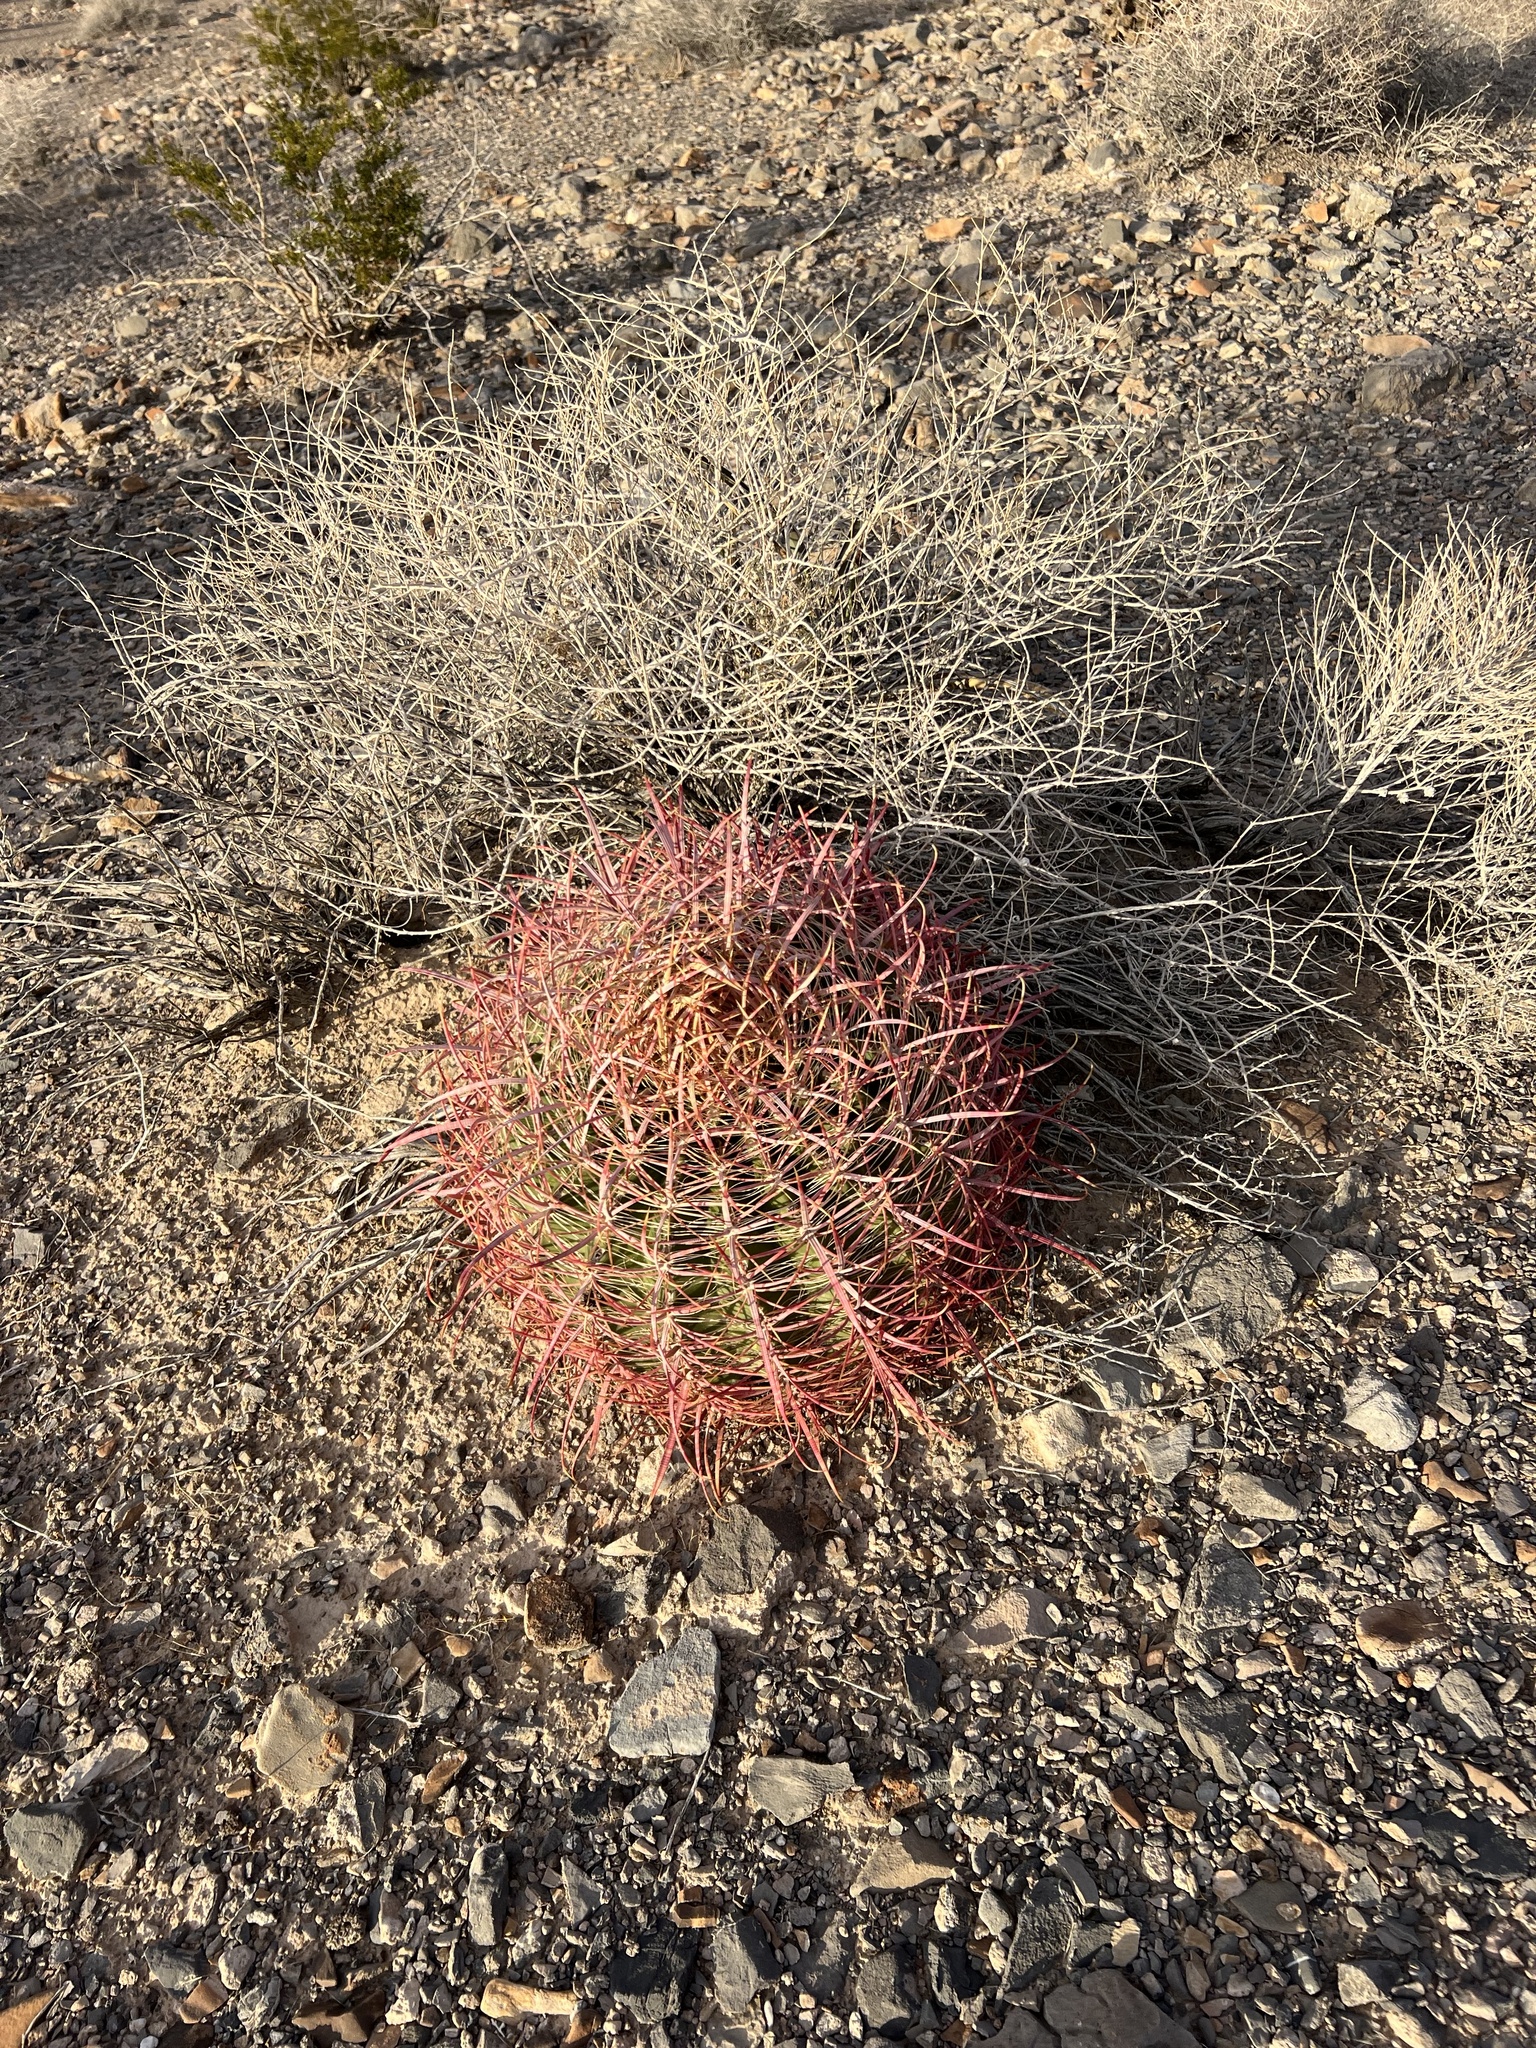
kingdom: Plantae
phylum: Tracheophyta
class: Magnoliopsida
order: Caryophyllales
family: Cactaceae
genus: Ferocactus
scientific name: Ferocactus cylindraceus
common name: California barrel cactus
